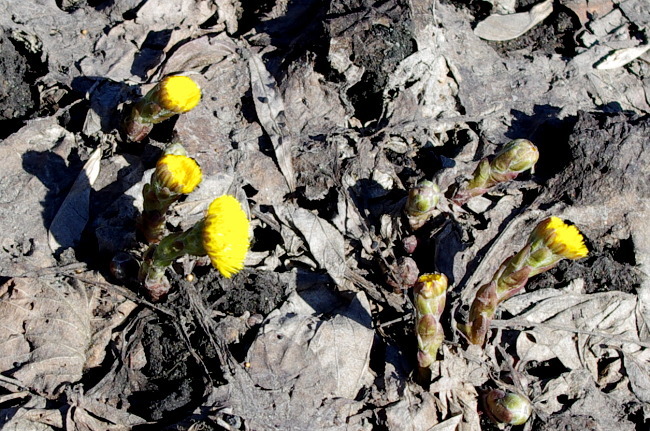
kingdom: Plantae
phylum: Tracheophyta
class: Magnoliopsida
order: Asterales
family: Asteraceae
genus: Tussilago
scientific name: Tussilago farfara
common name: Coltsfoot
